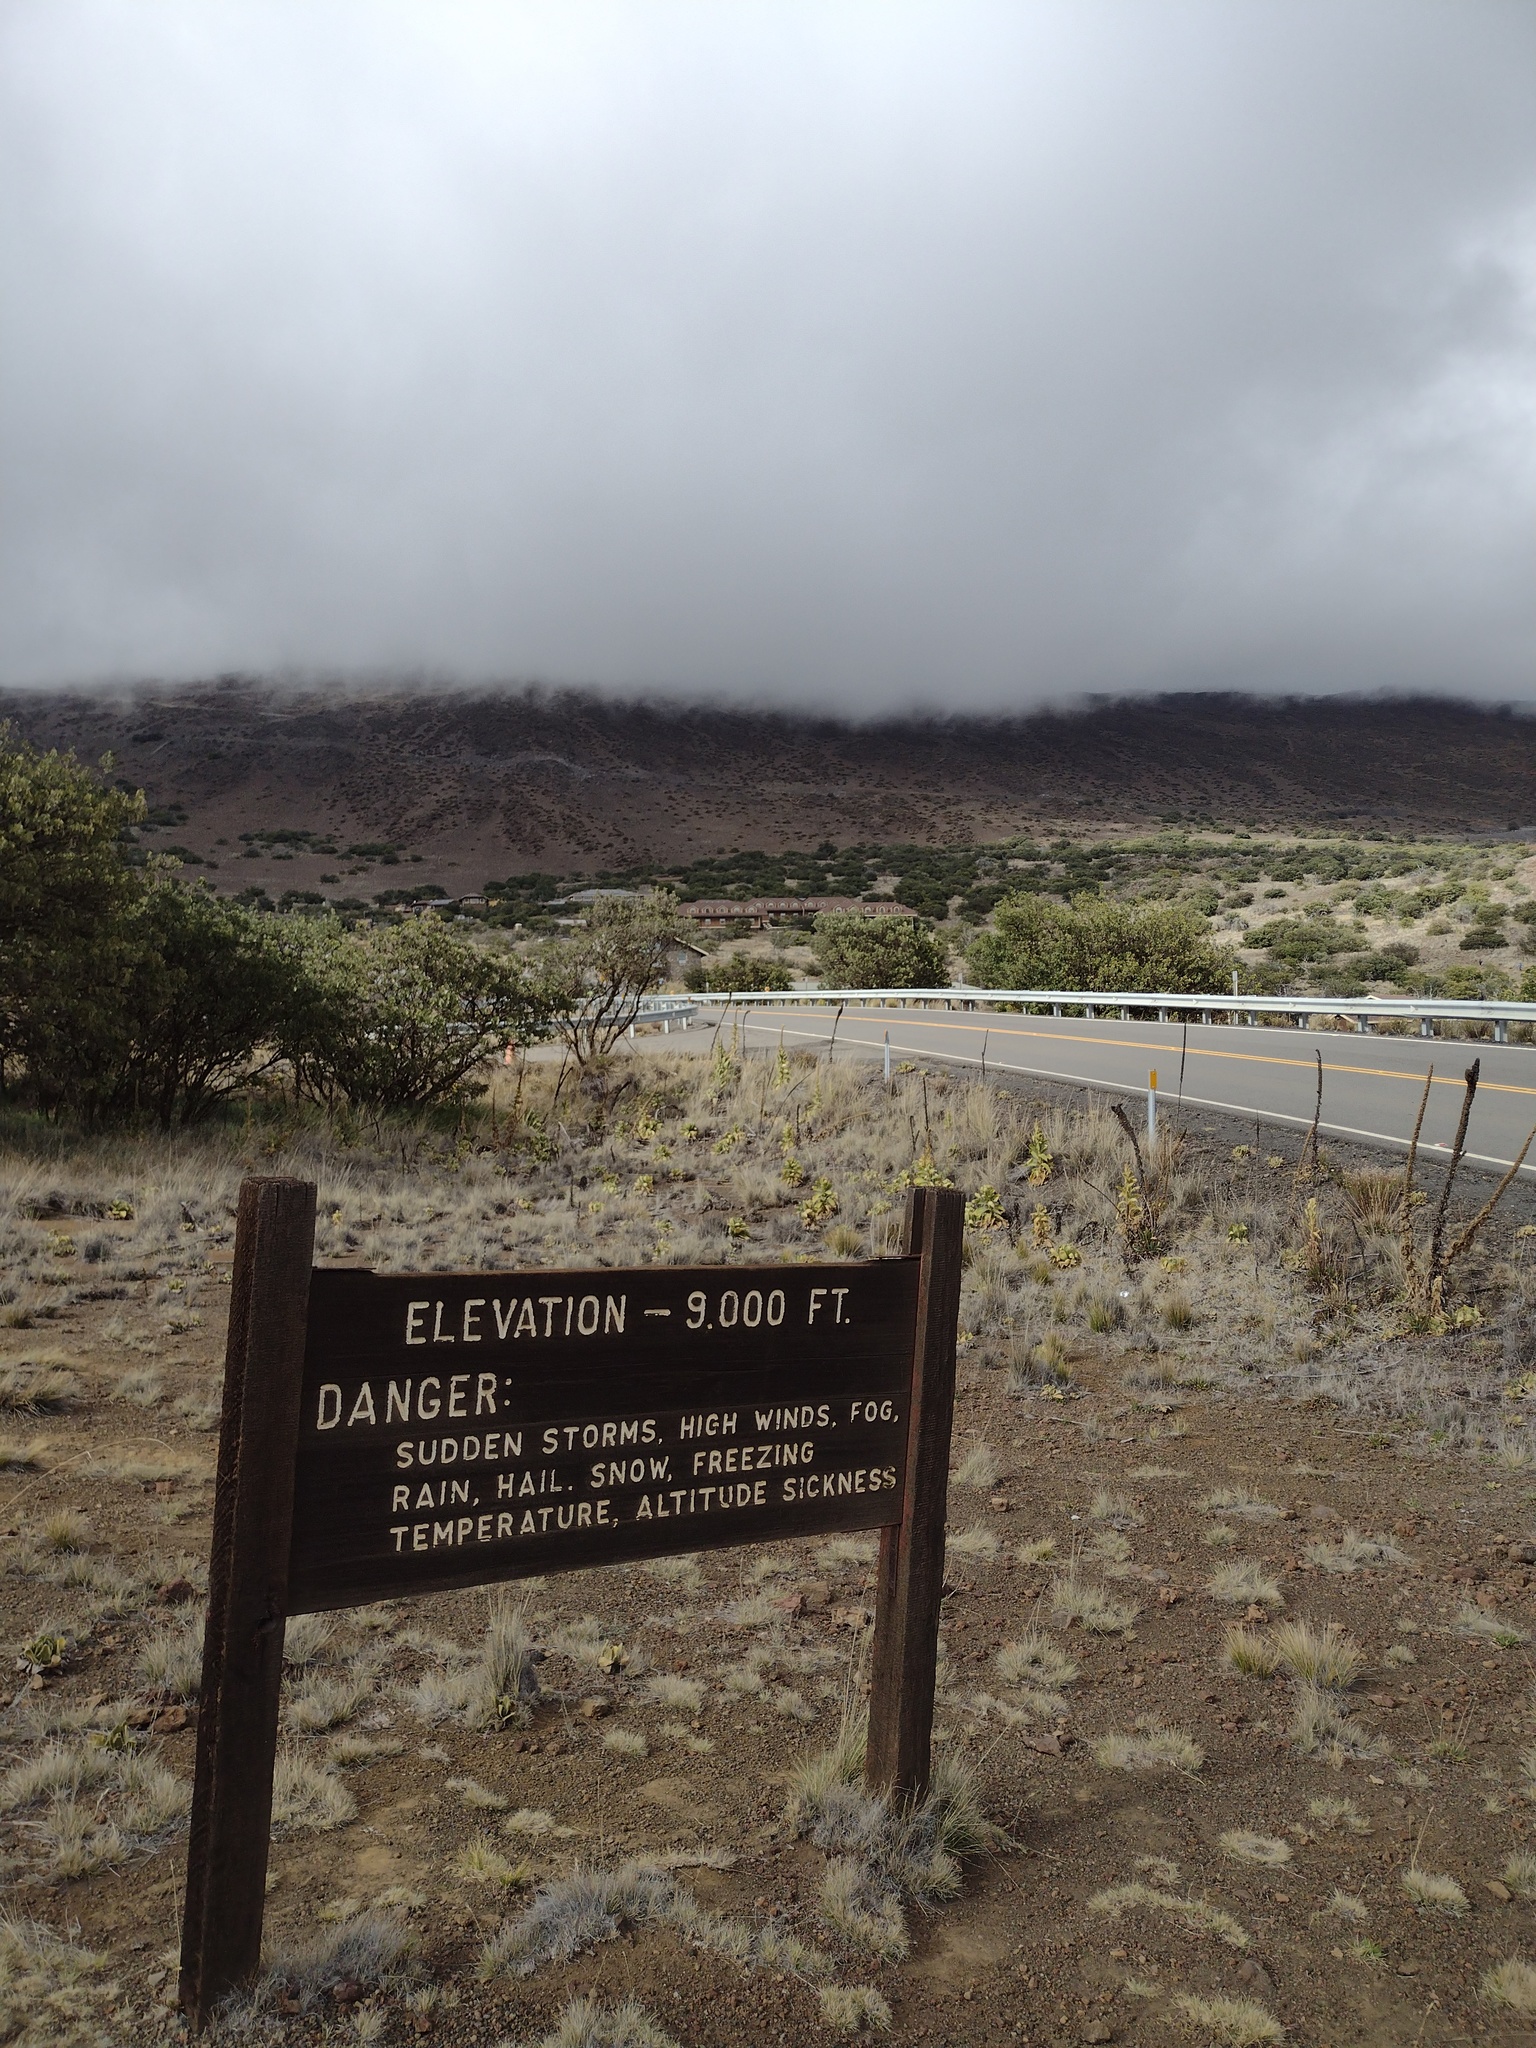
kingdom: Plantae
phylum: Tracheophyta
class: Magnoliopsida
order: Lamiales
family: Scrophulariaceae
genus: Verbascum
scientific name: Verbascum thapsus
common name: Common mullein
